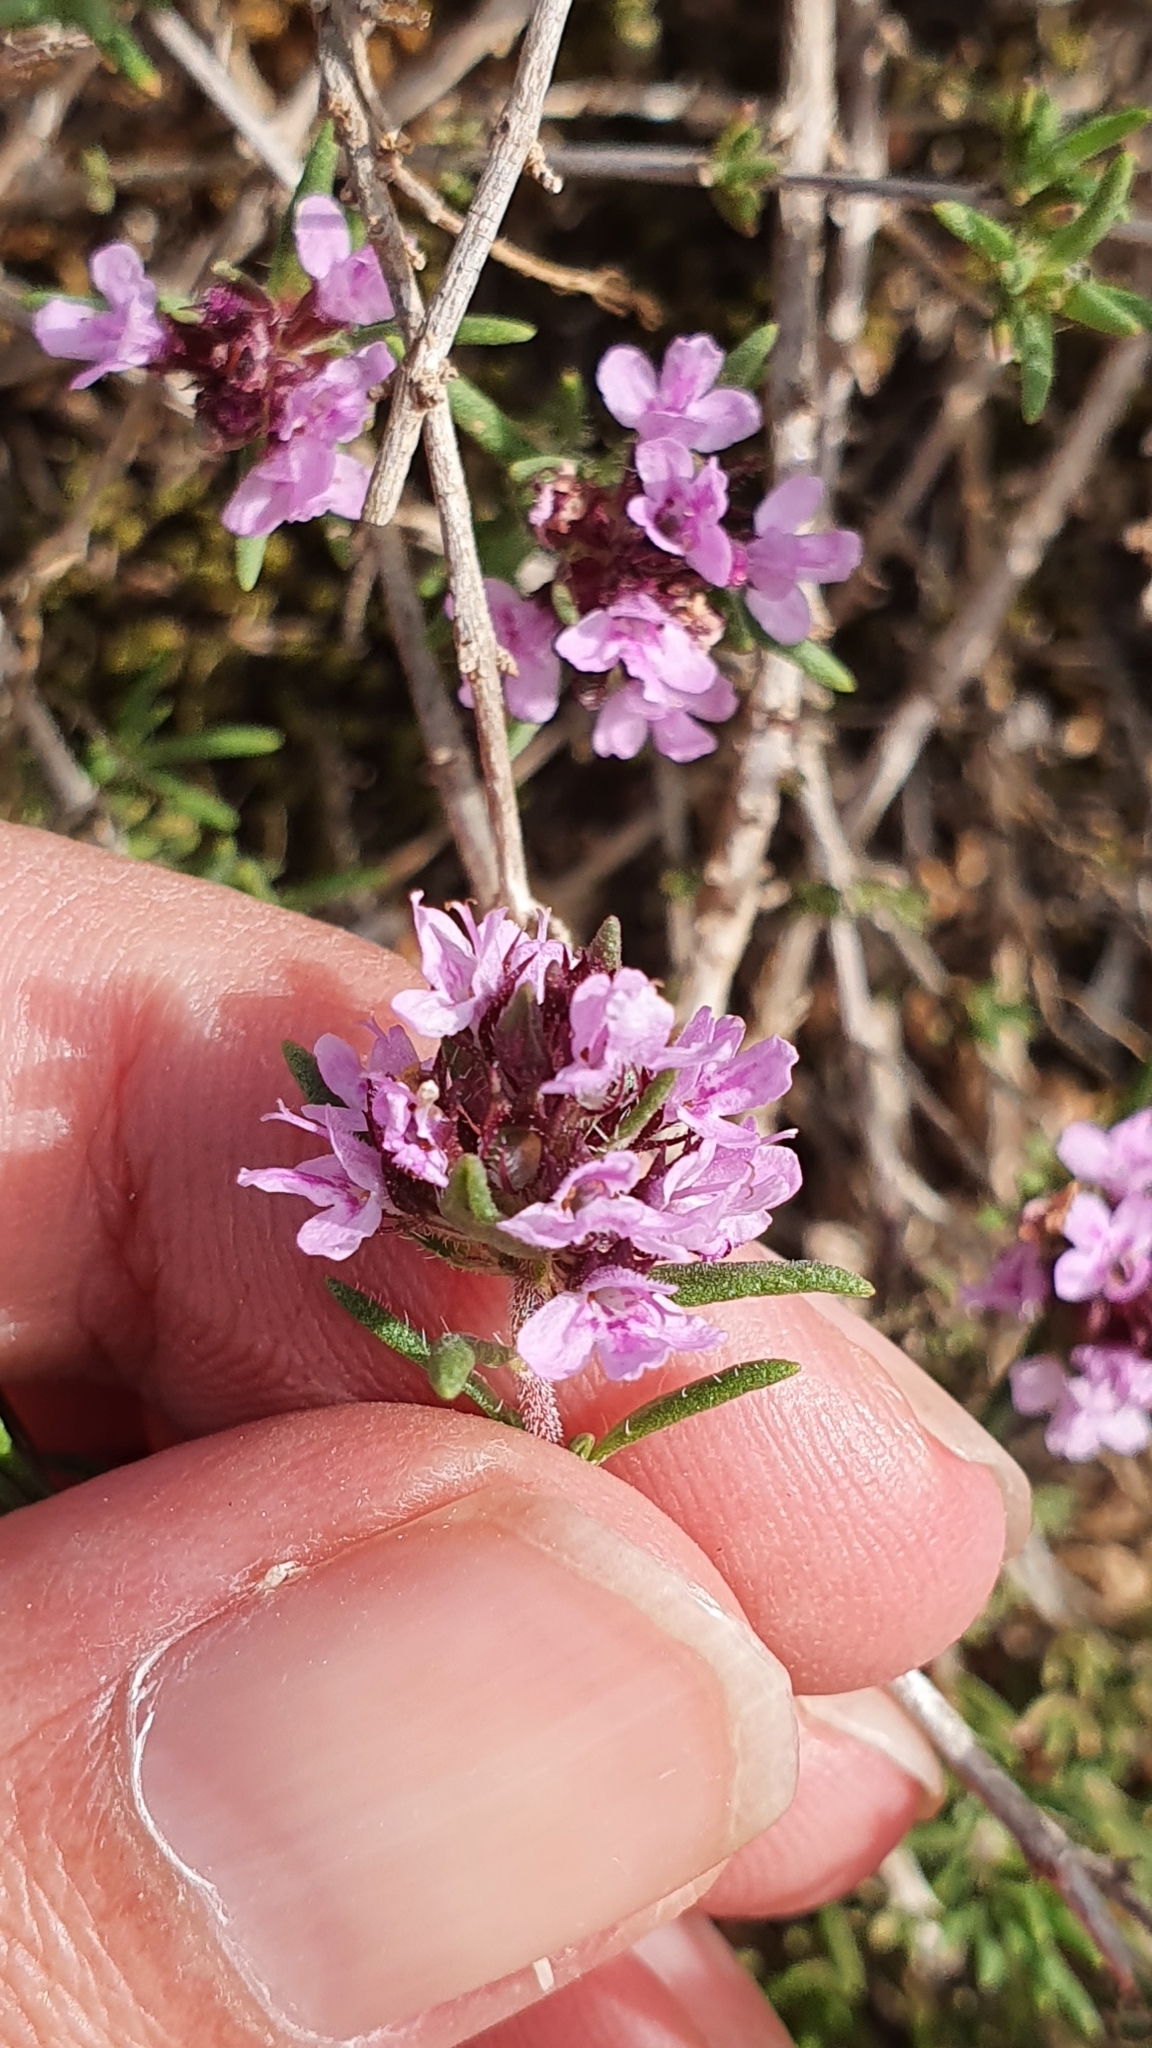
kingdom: Plantae
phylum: Tracheophyta
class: Magnoliopsida
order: Lamiales
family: Lamiaceae
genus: Thymus
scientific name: Thymus willdenowii
